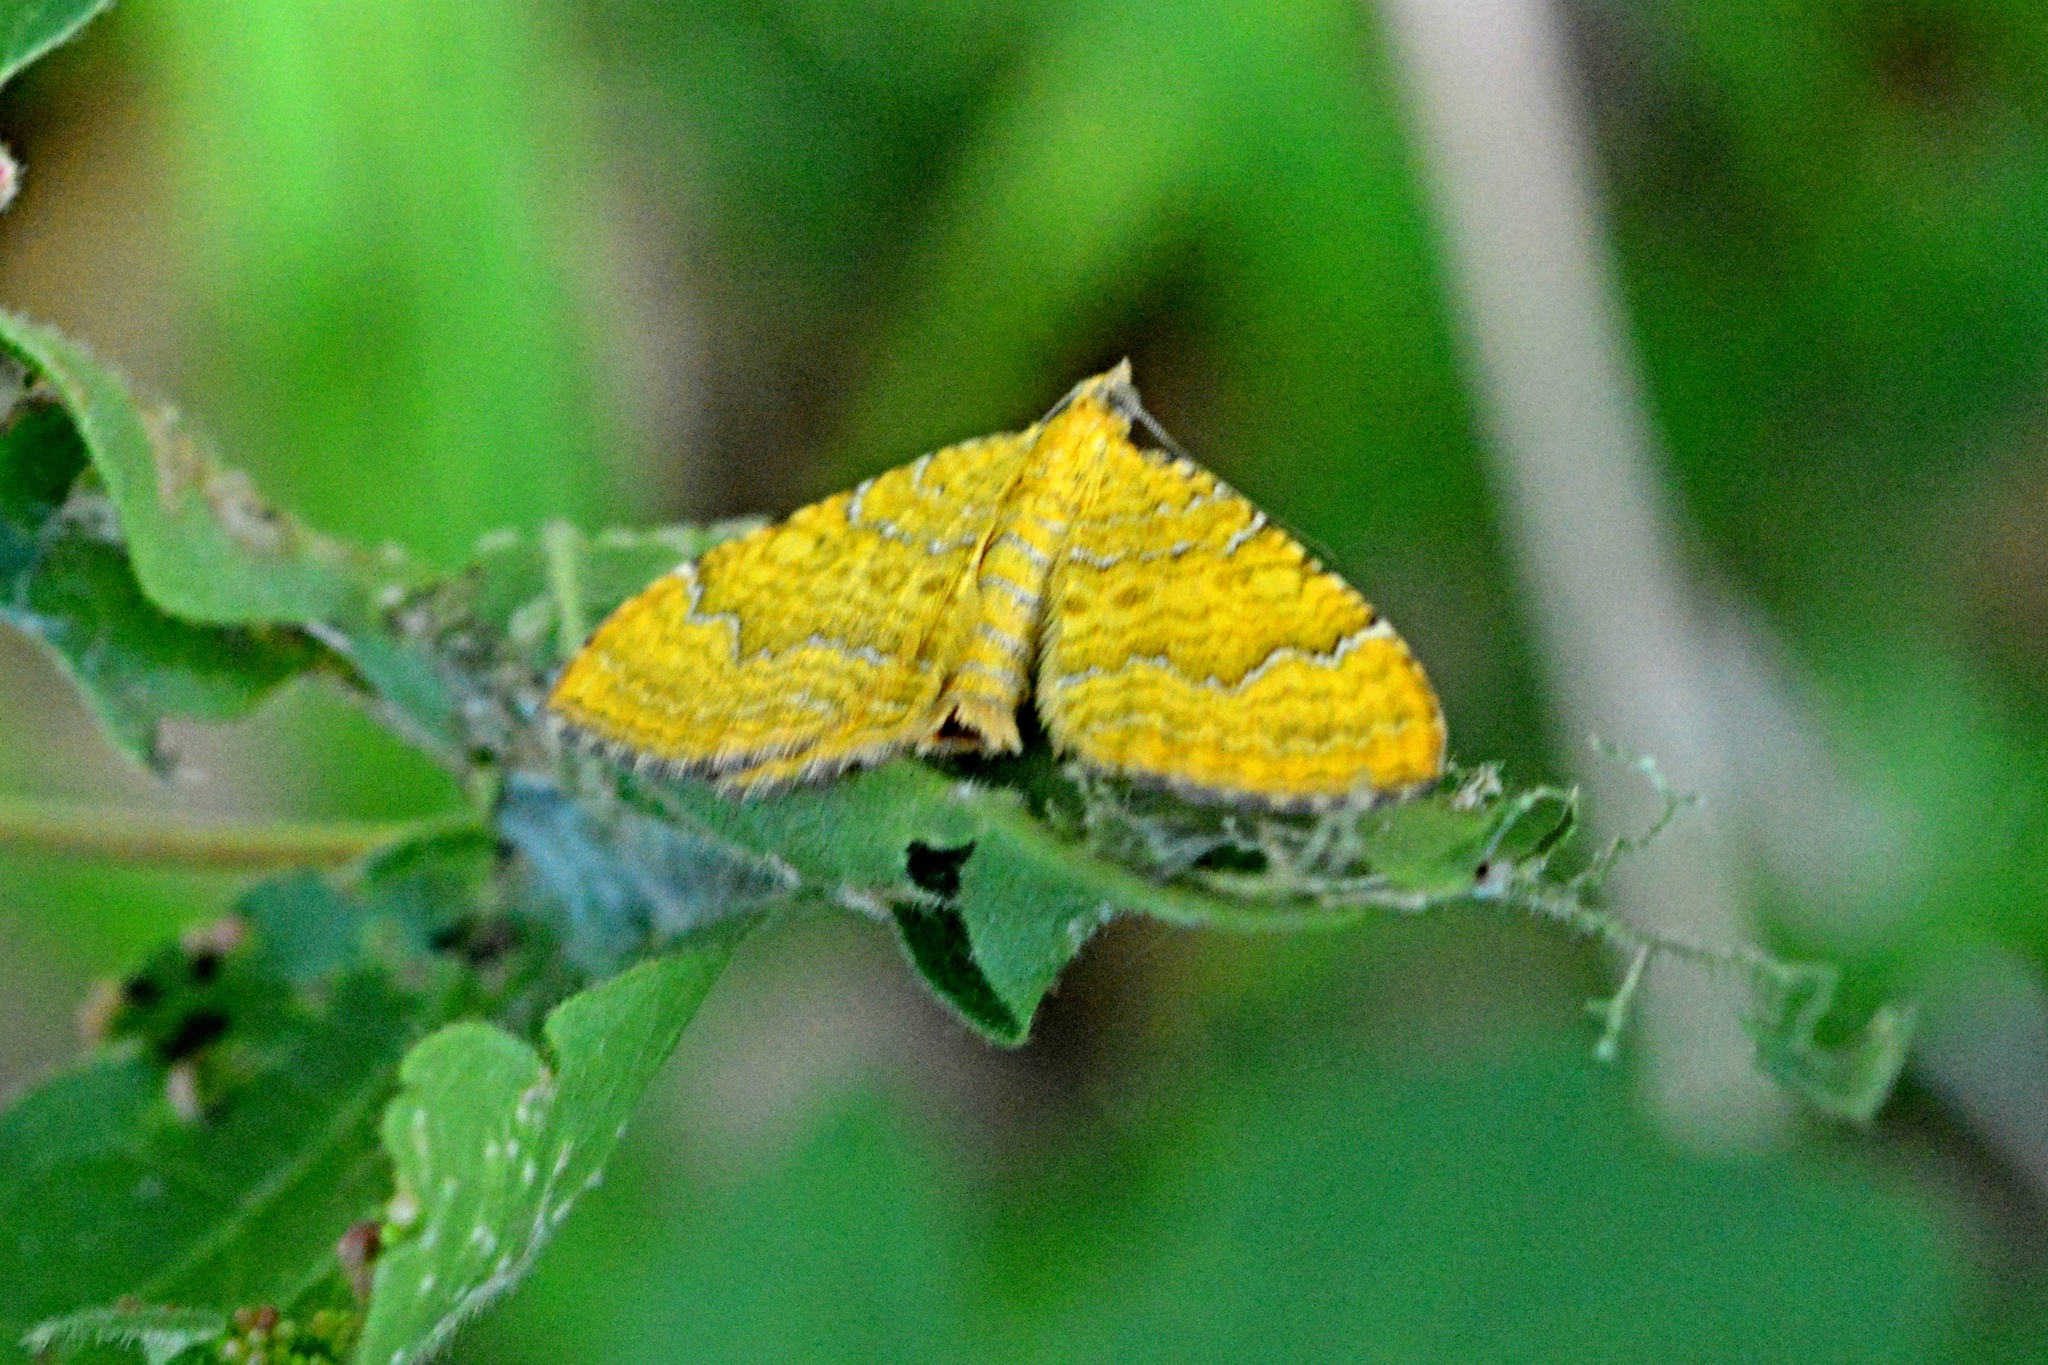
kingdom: Animalia
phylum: Arthropoda
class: Insecta
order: Lepidoptera
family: Geometridae
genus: Camptogramma
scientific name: Camptogramma bilineata
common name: Yellow shell
